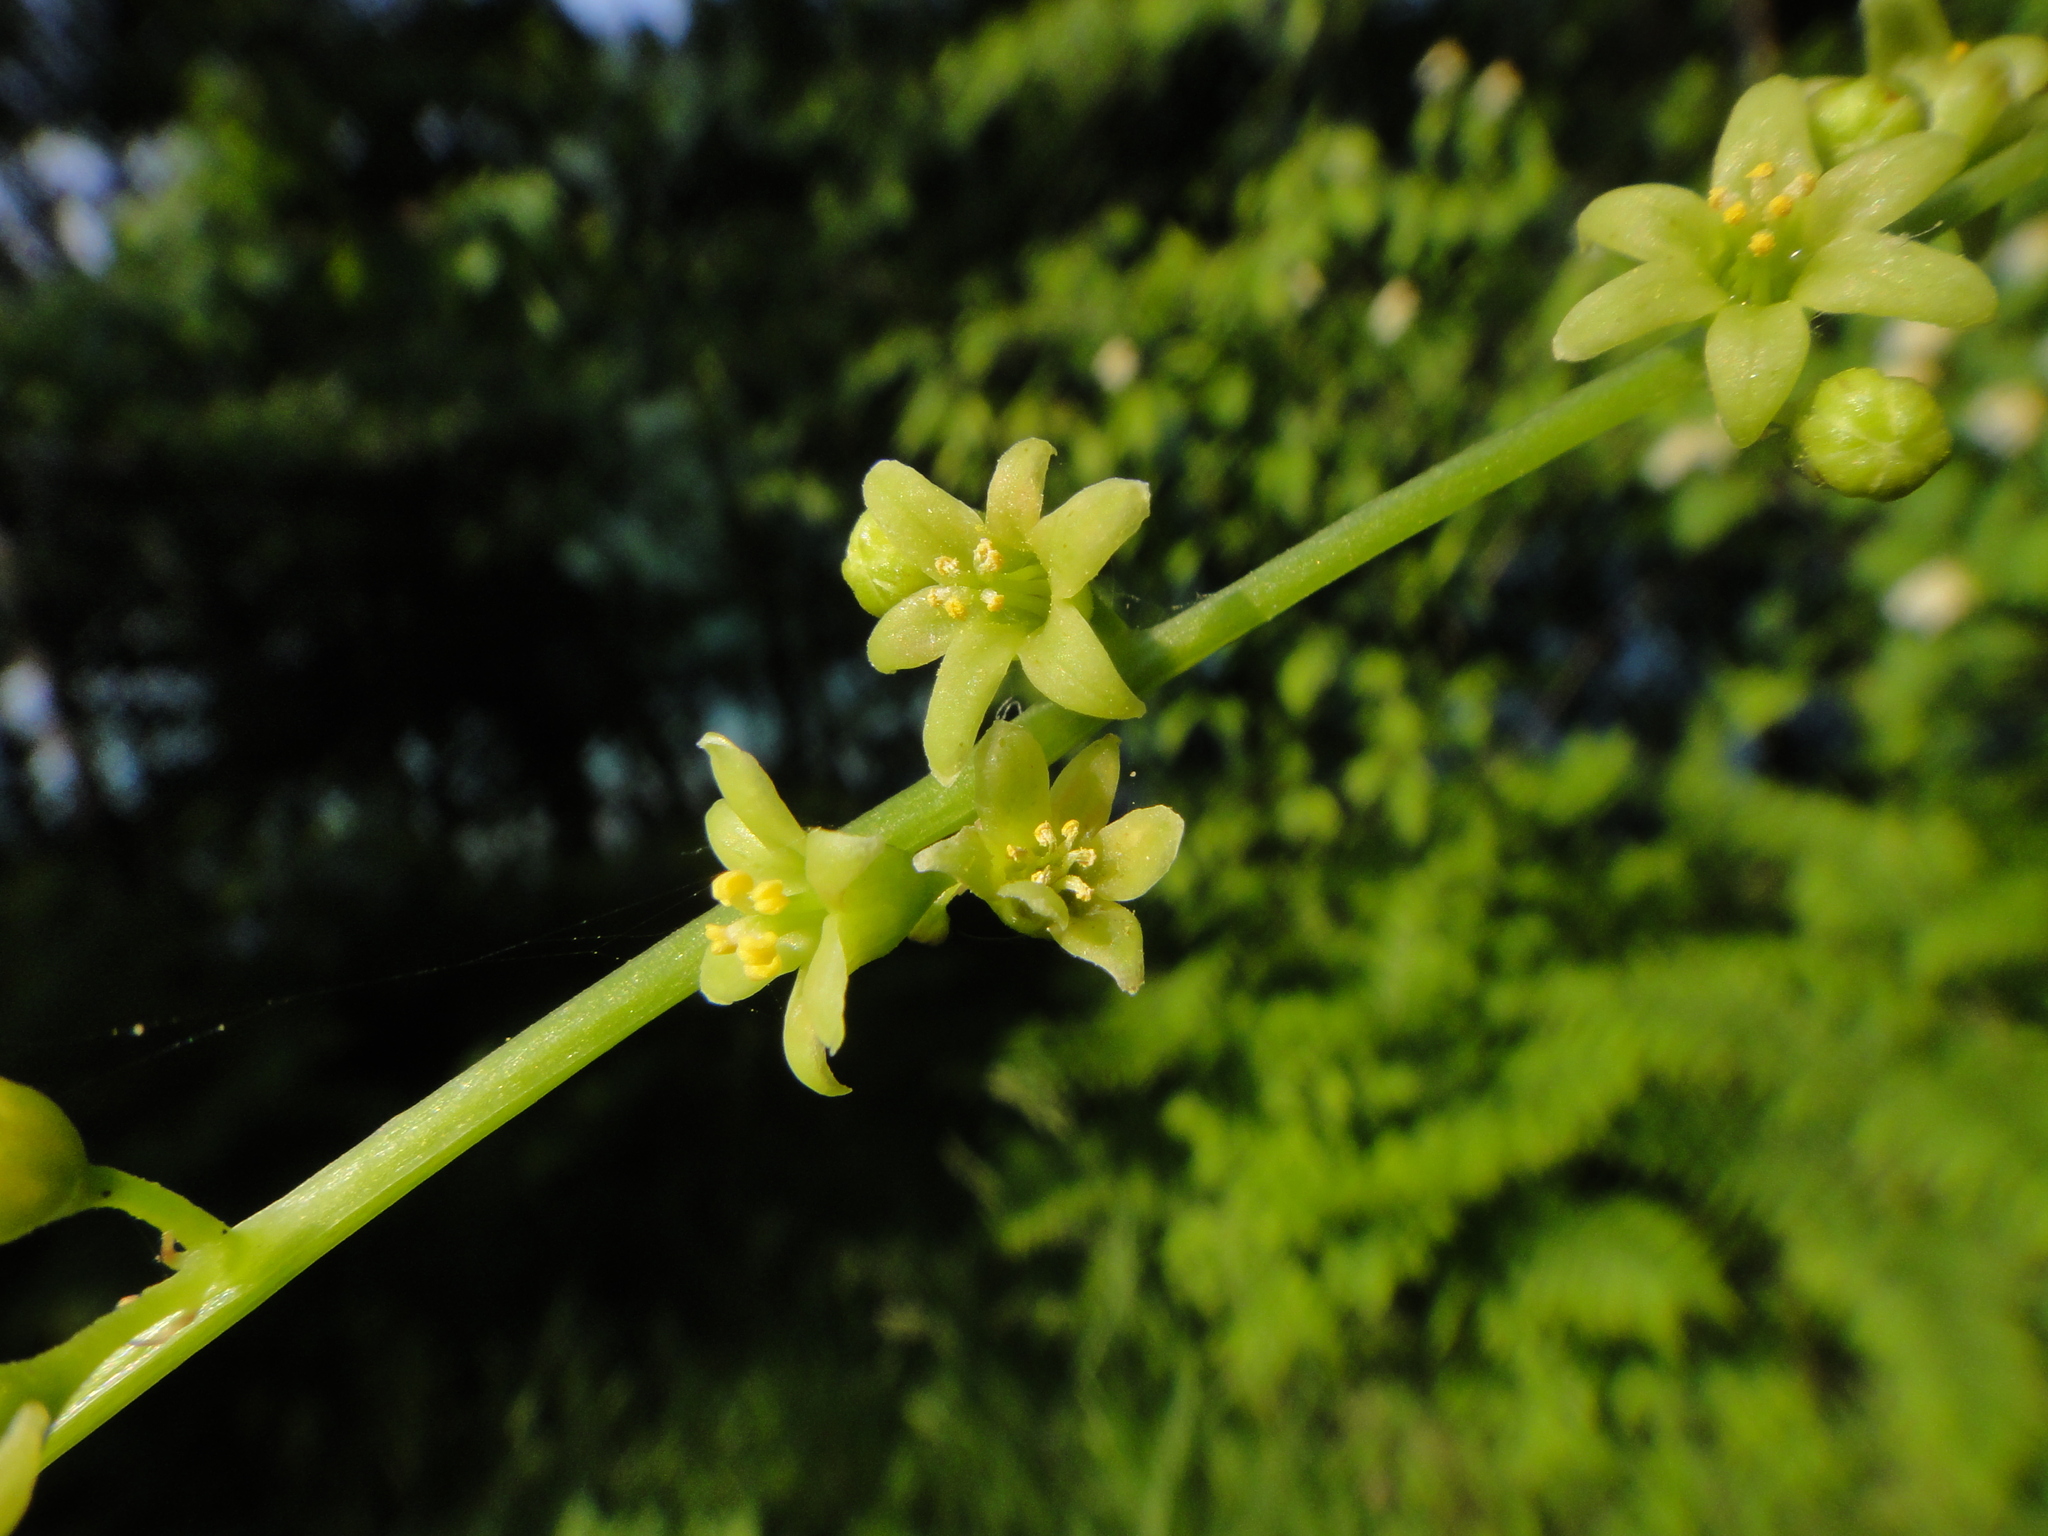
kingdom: Plantae
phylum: Tracheophyta
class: Liliopsida
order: Dioscoreales
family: Dioscoreaceae
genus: Dioscorea
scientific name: Dioscorea communis
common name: Black-bindweed
